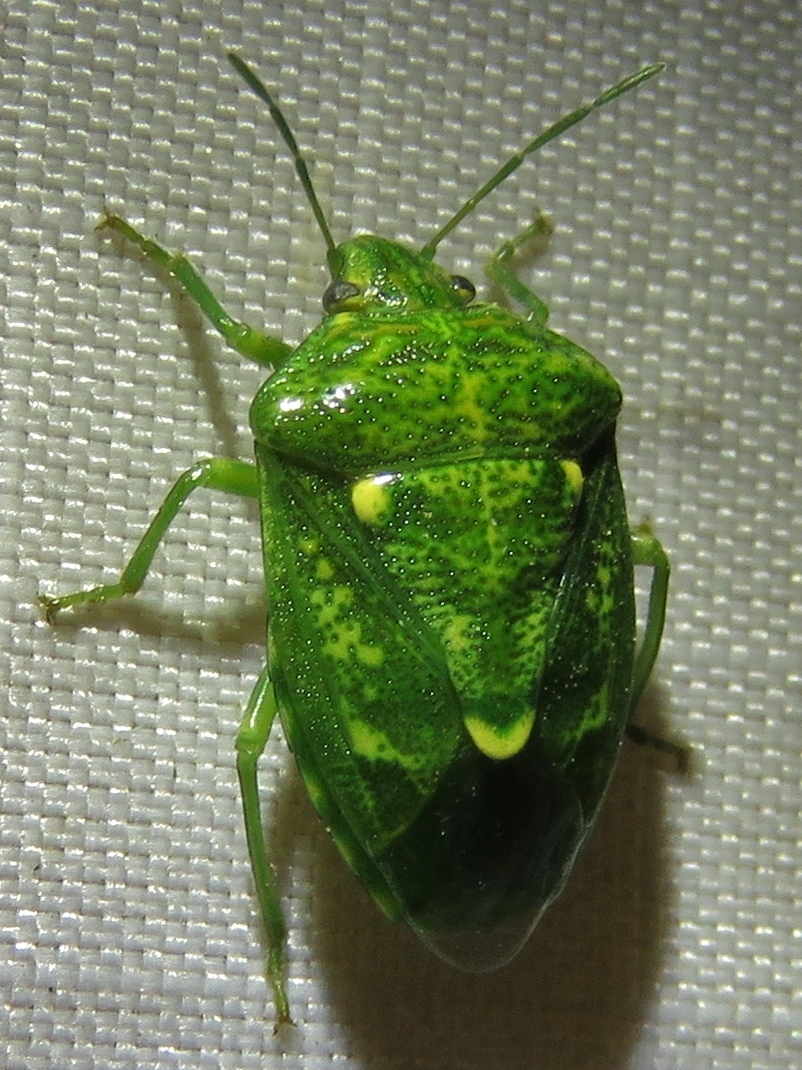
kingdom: Animalia
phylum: Arthropoda
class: Insecta
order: Hemiptera
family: Pentatomidae
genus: Banasa
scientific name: Banasa euchlora
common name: Cedar berry bug
